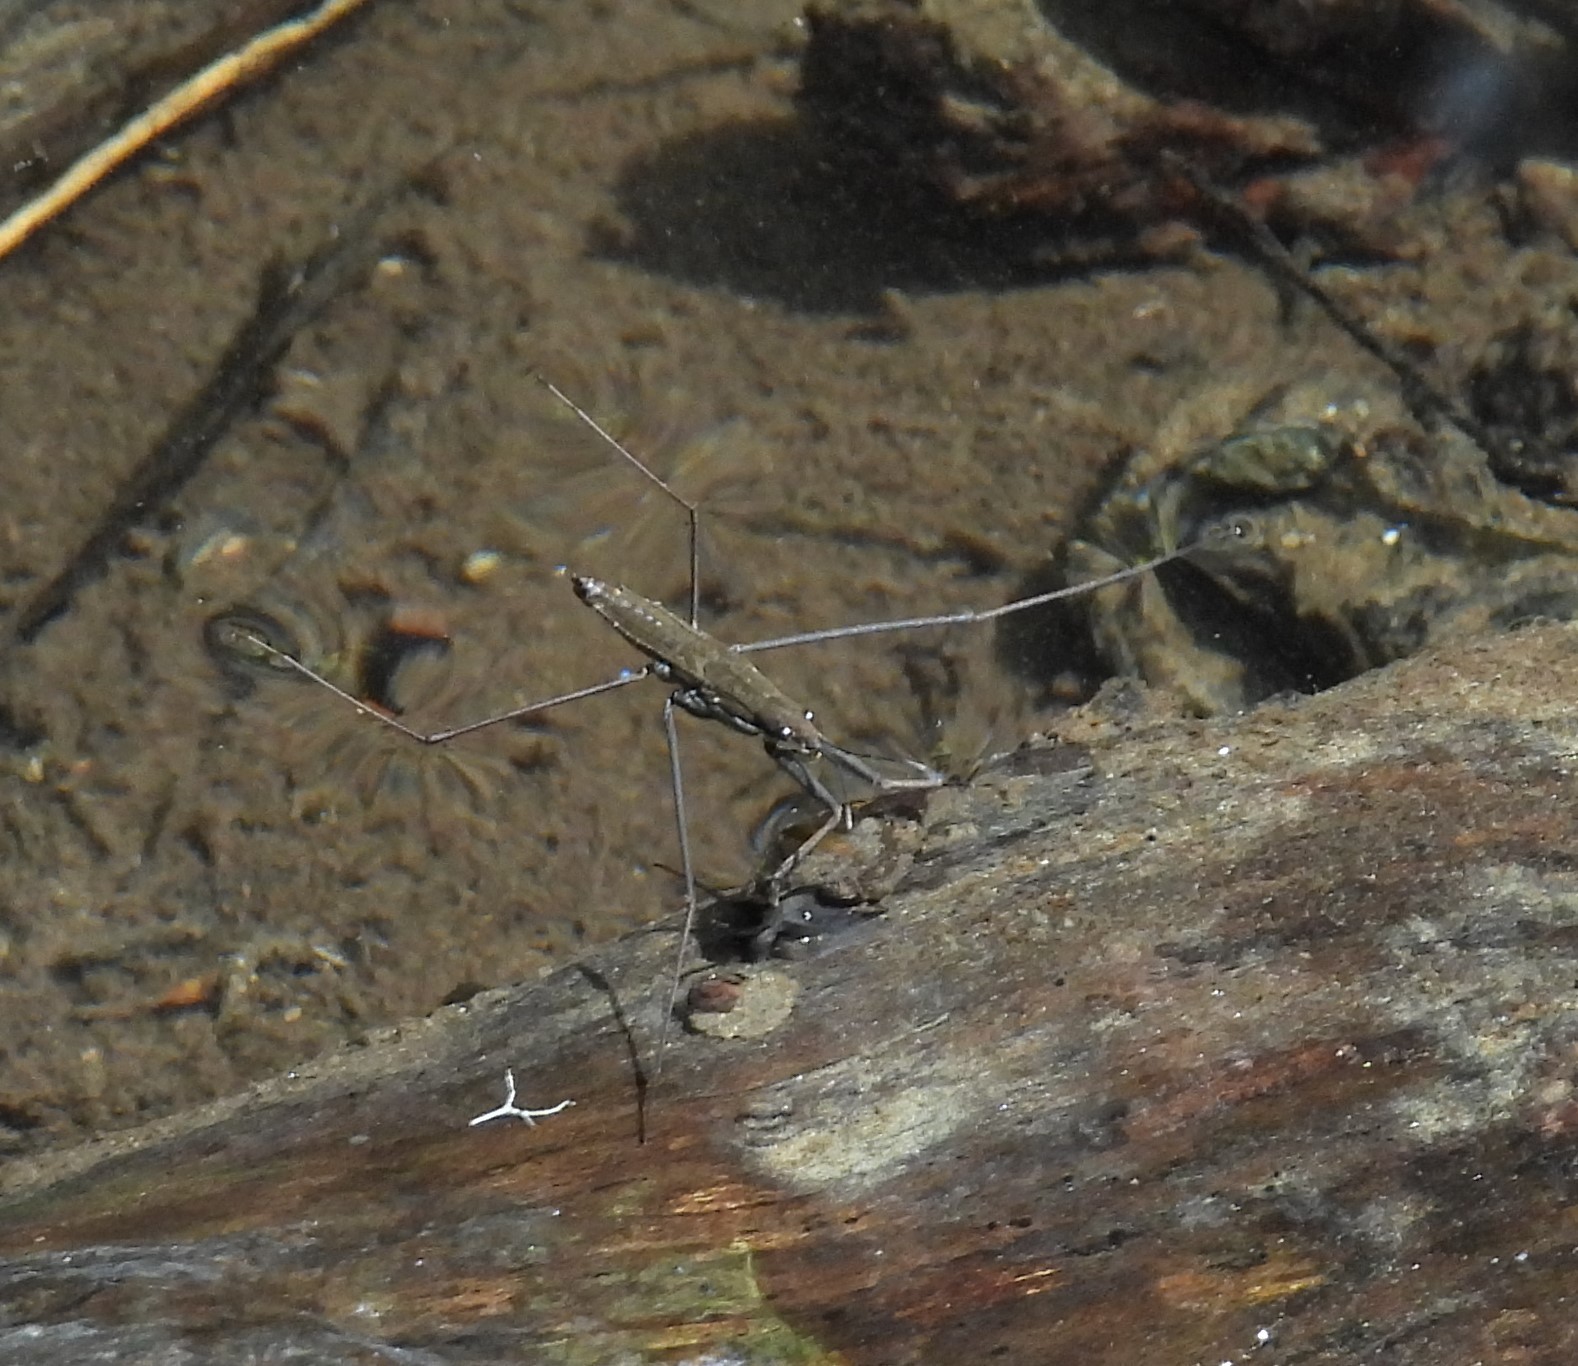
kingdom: Animalia
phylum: Arthropoda
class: Insecta
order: Hemiptera
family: Gerridae
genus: Aquarius
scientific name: Aquarius remigis
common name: Common water strider
